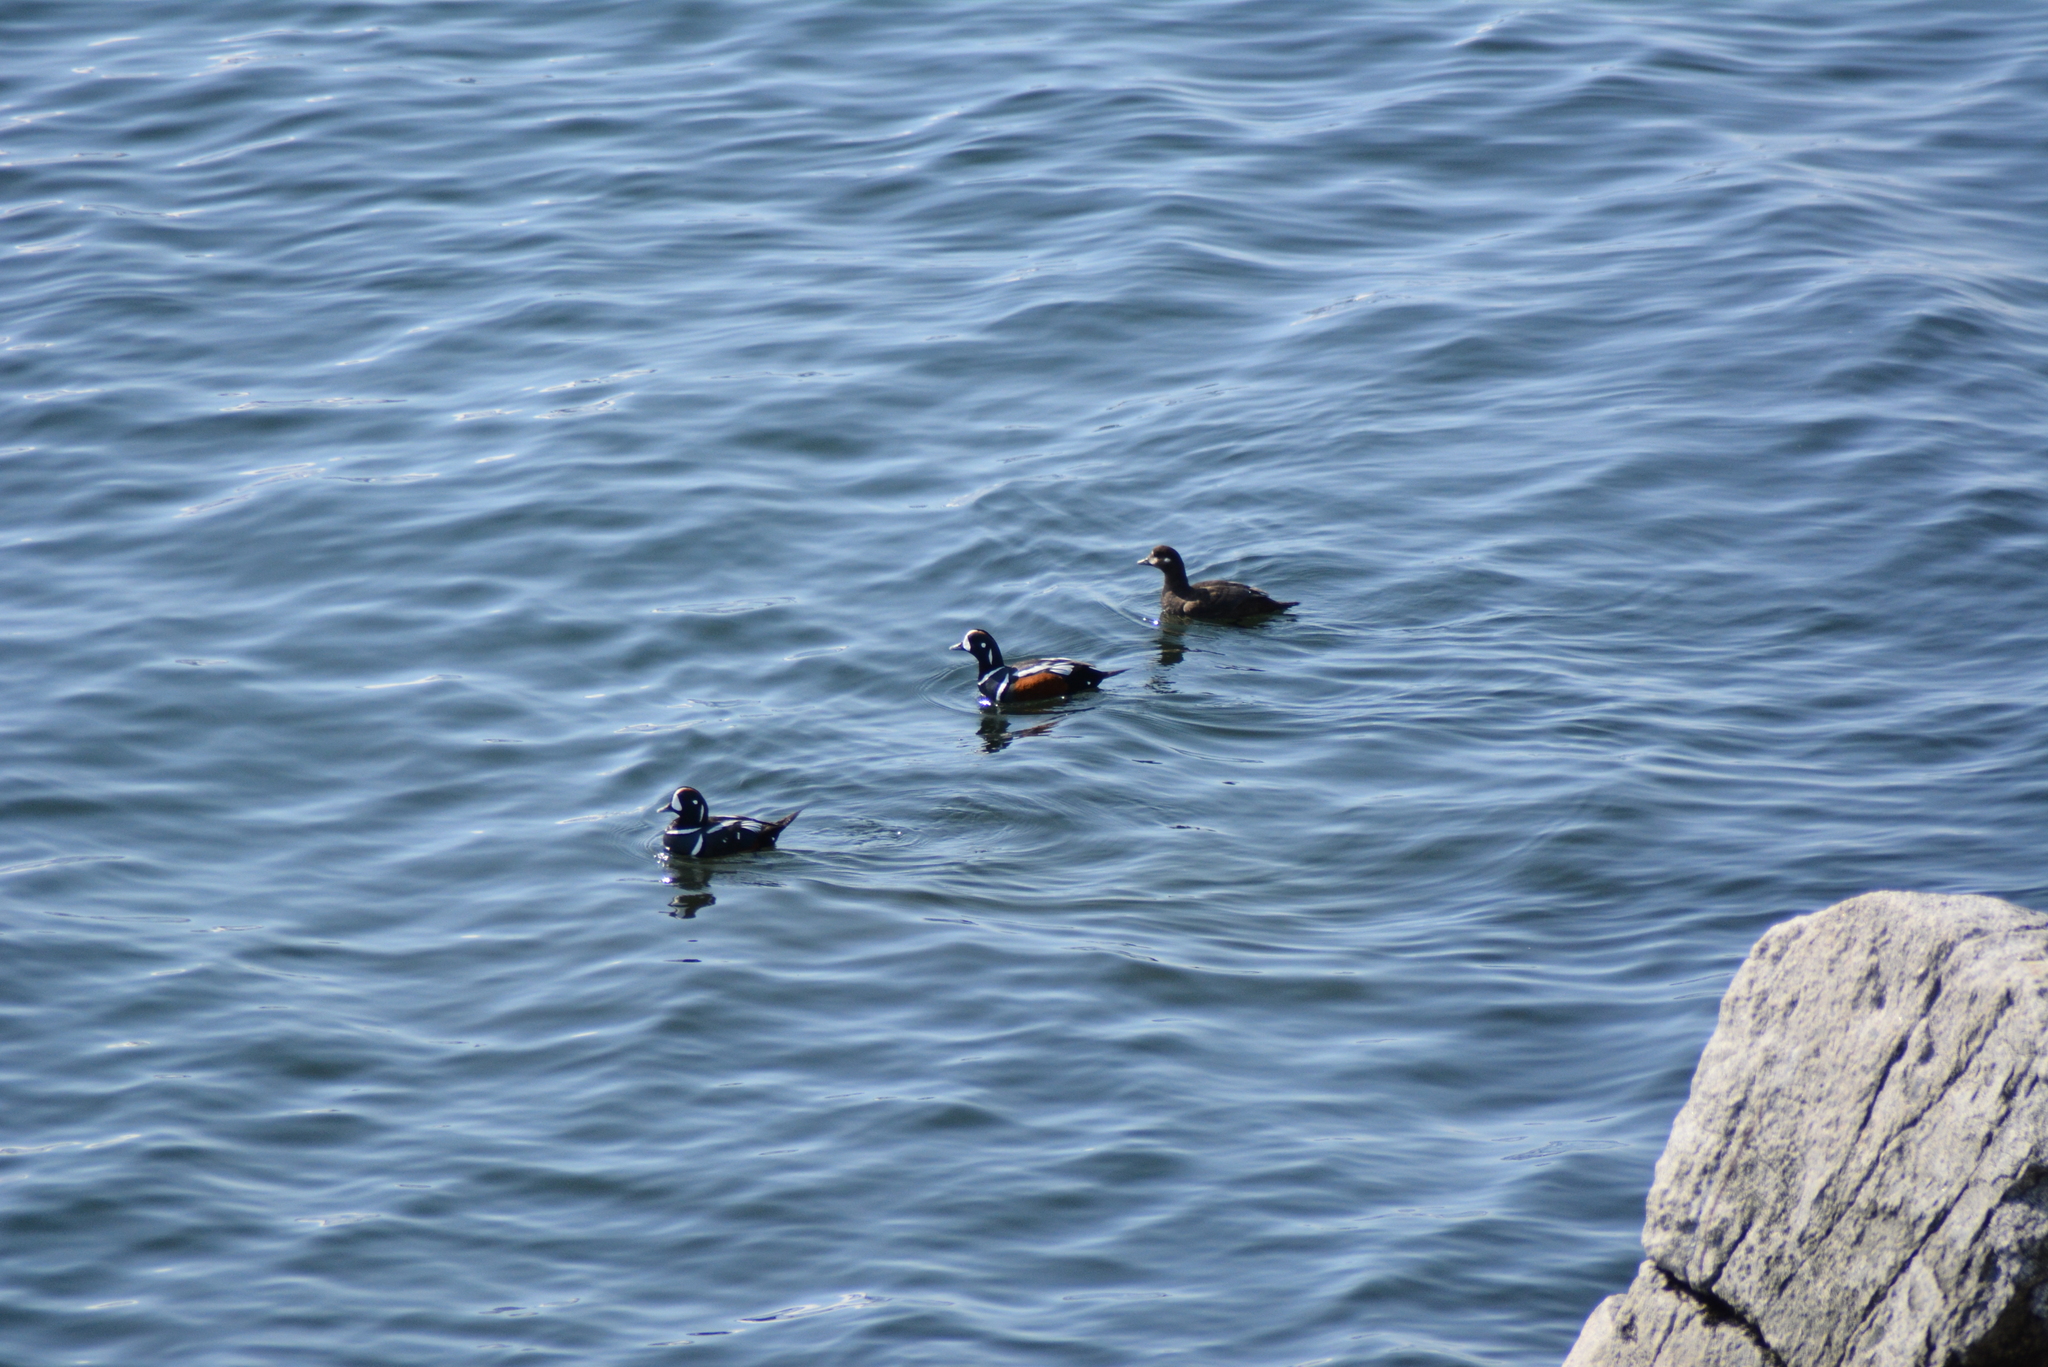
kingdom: Animalia
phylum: Chordata
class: Aves
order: Anseriformes
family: Anatidae
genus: Histrionicus
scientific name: Histrionicus histrionicus
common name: Harlequin duck
